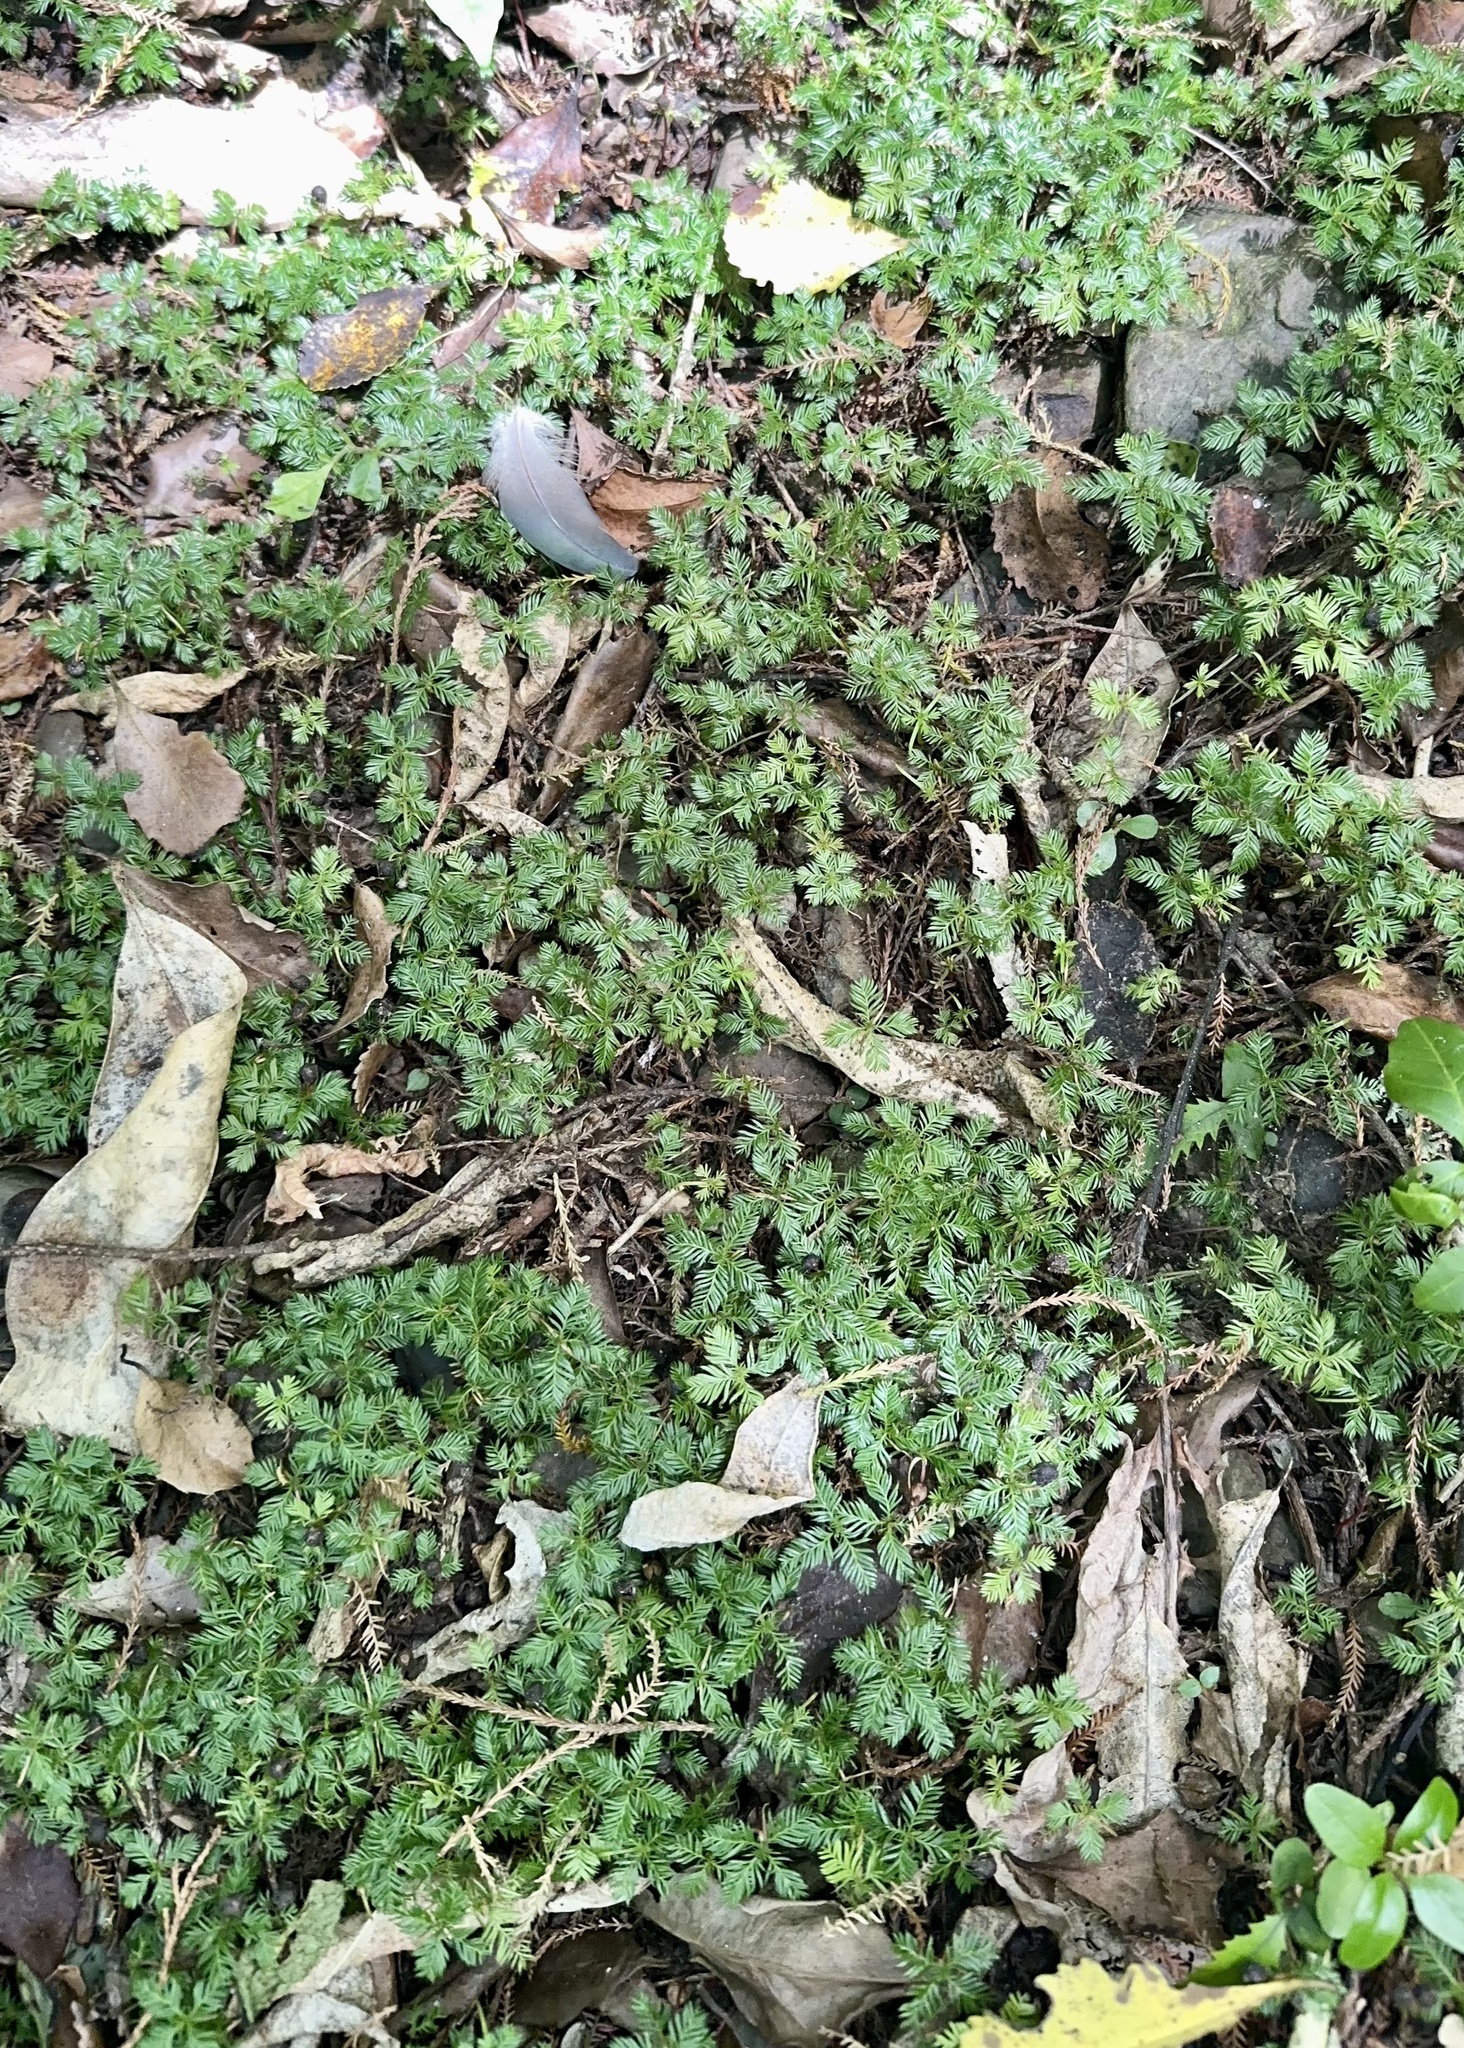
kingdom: Plantae
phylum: Tracheophyta
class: Pinopsida
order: Pinales
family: Podocarpaceae
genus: Dacrycarpus
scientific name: Dacrycarpus dacrydioides
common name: White pine
